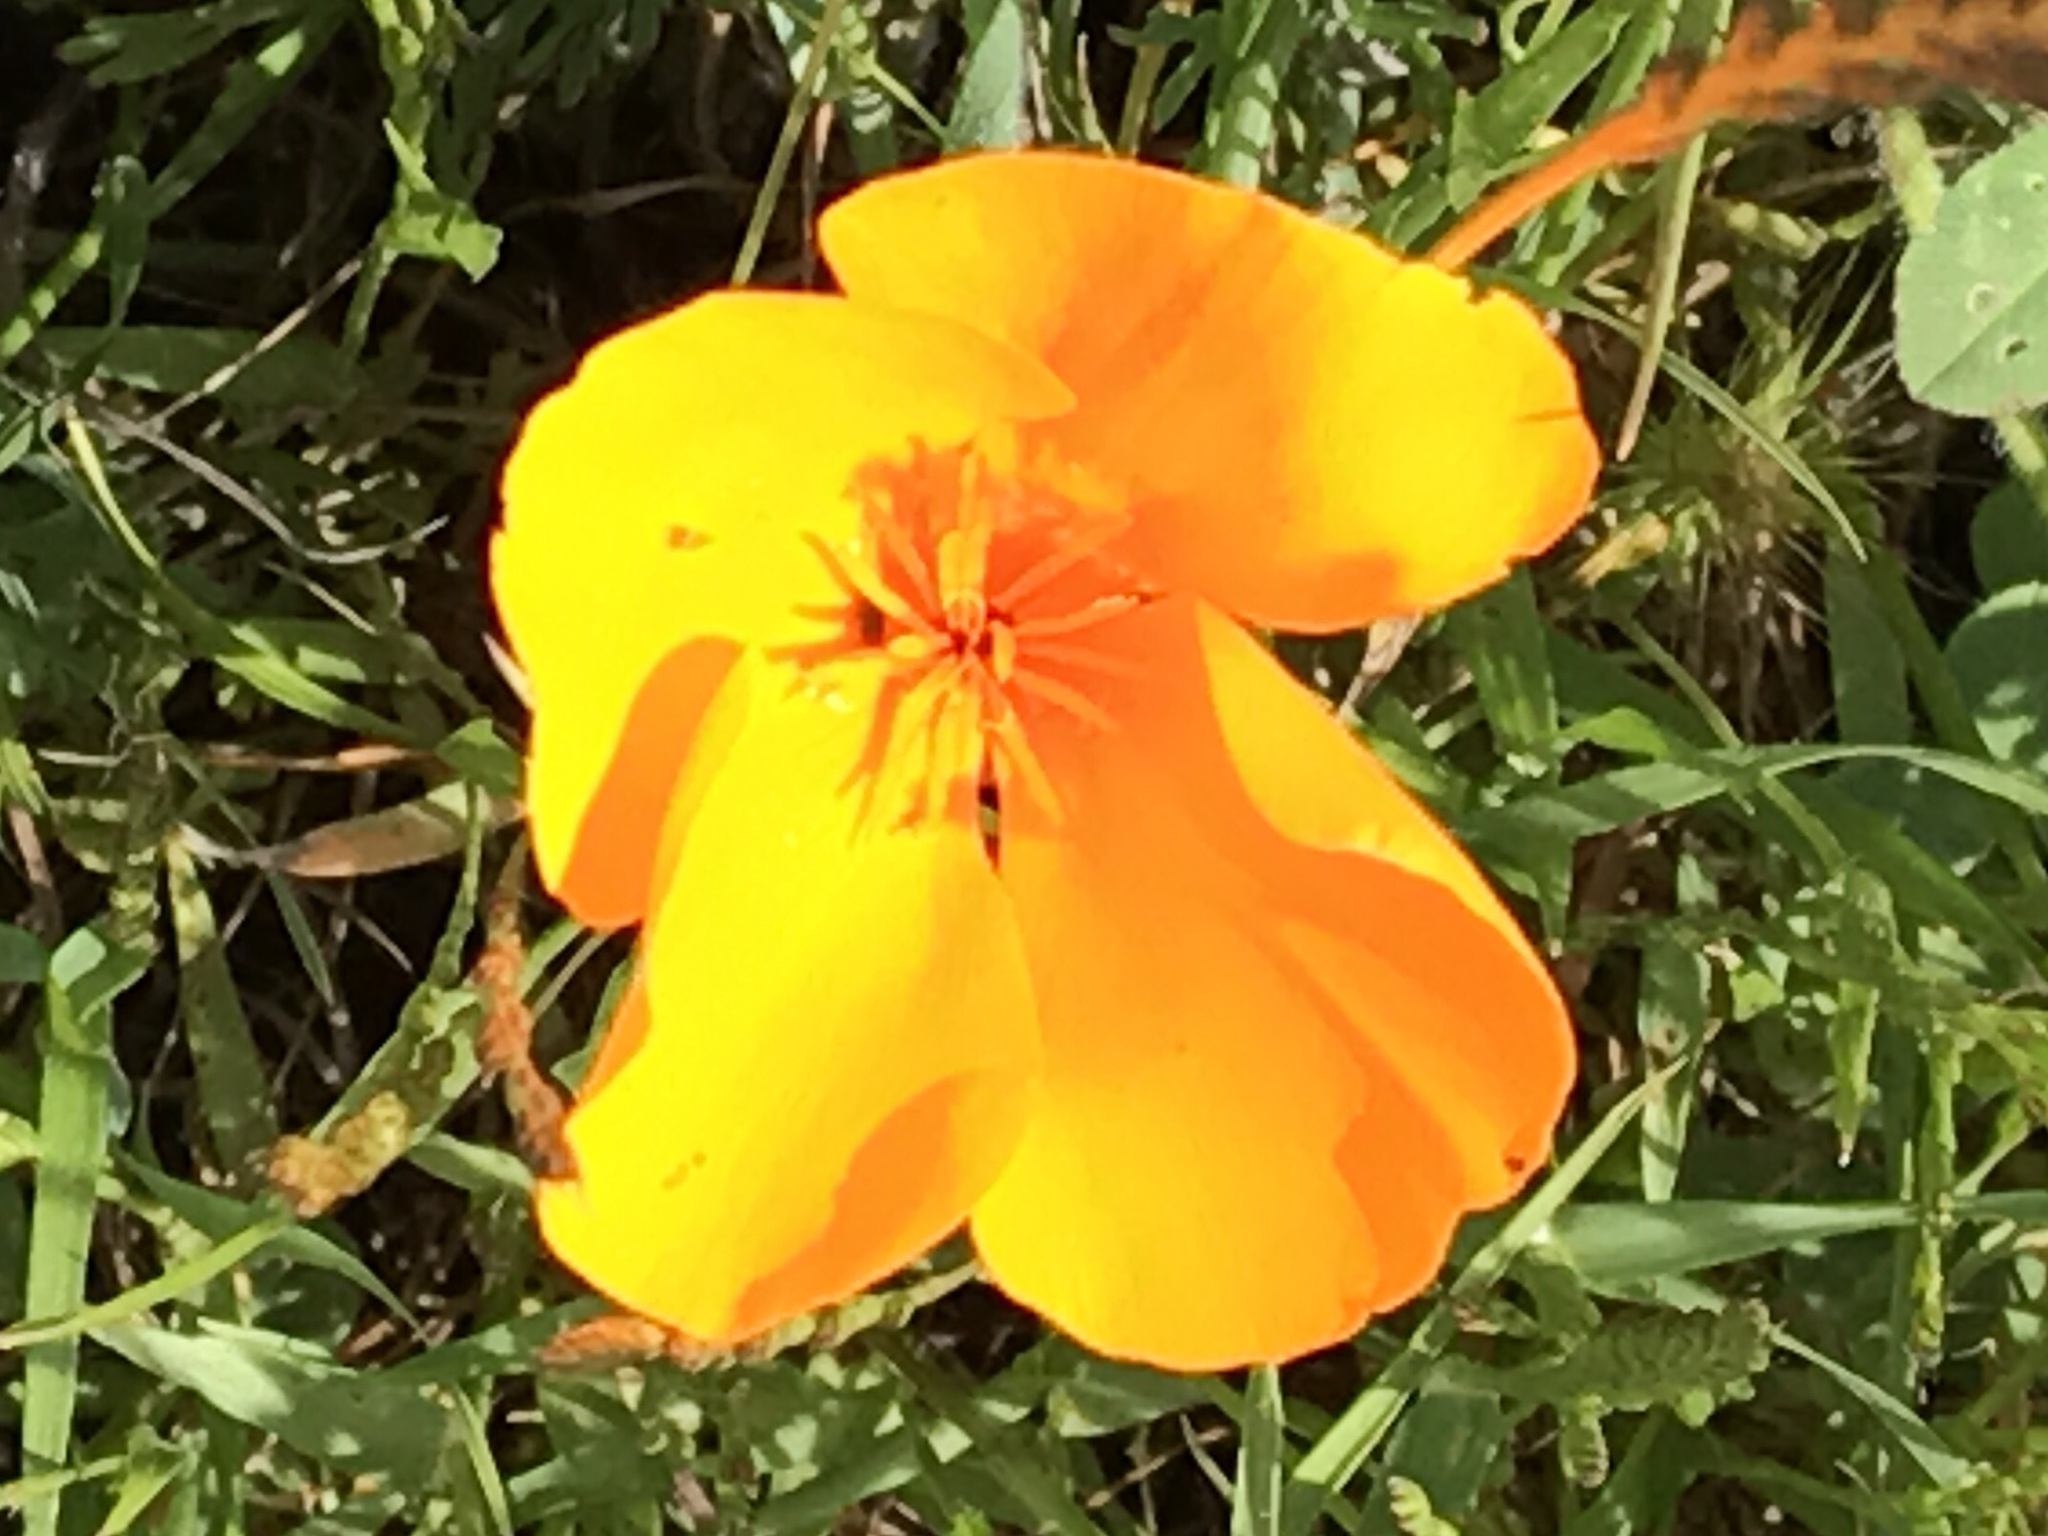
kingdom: Plantae
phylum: Tracheophyta
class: Magnoliopsida
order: Ranunculales
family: Papaveraceae
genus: Eschscholzia
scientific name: Eschscholzia californica
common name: California poppy
